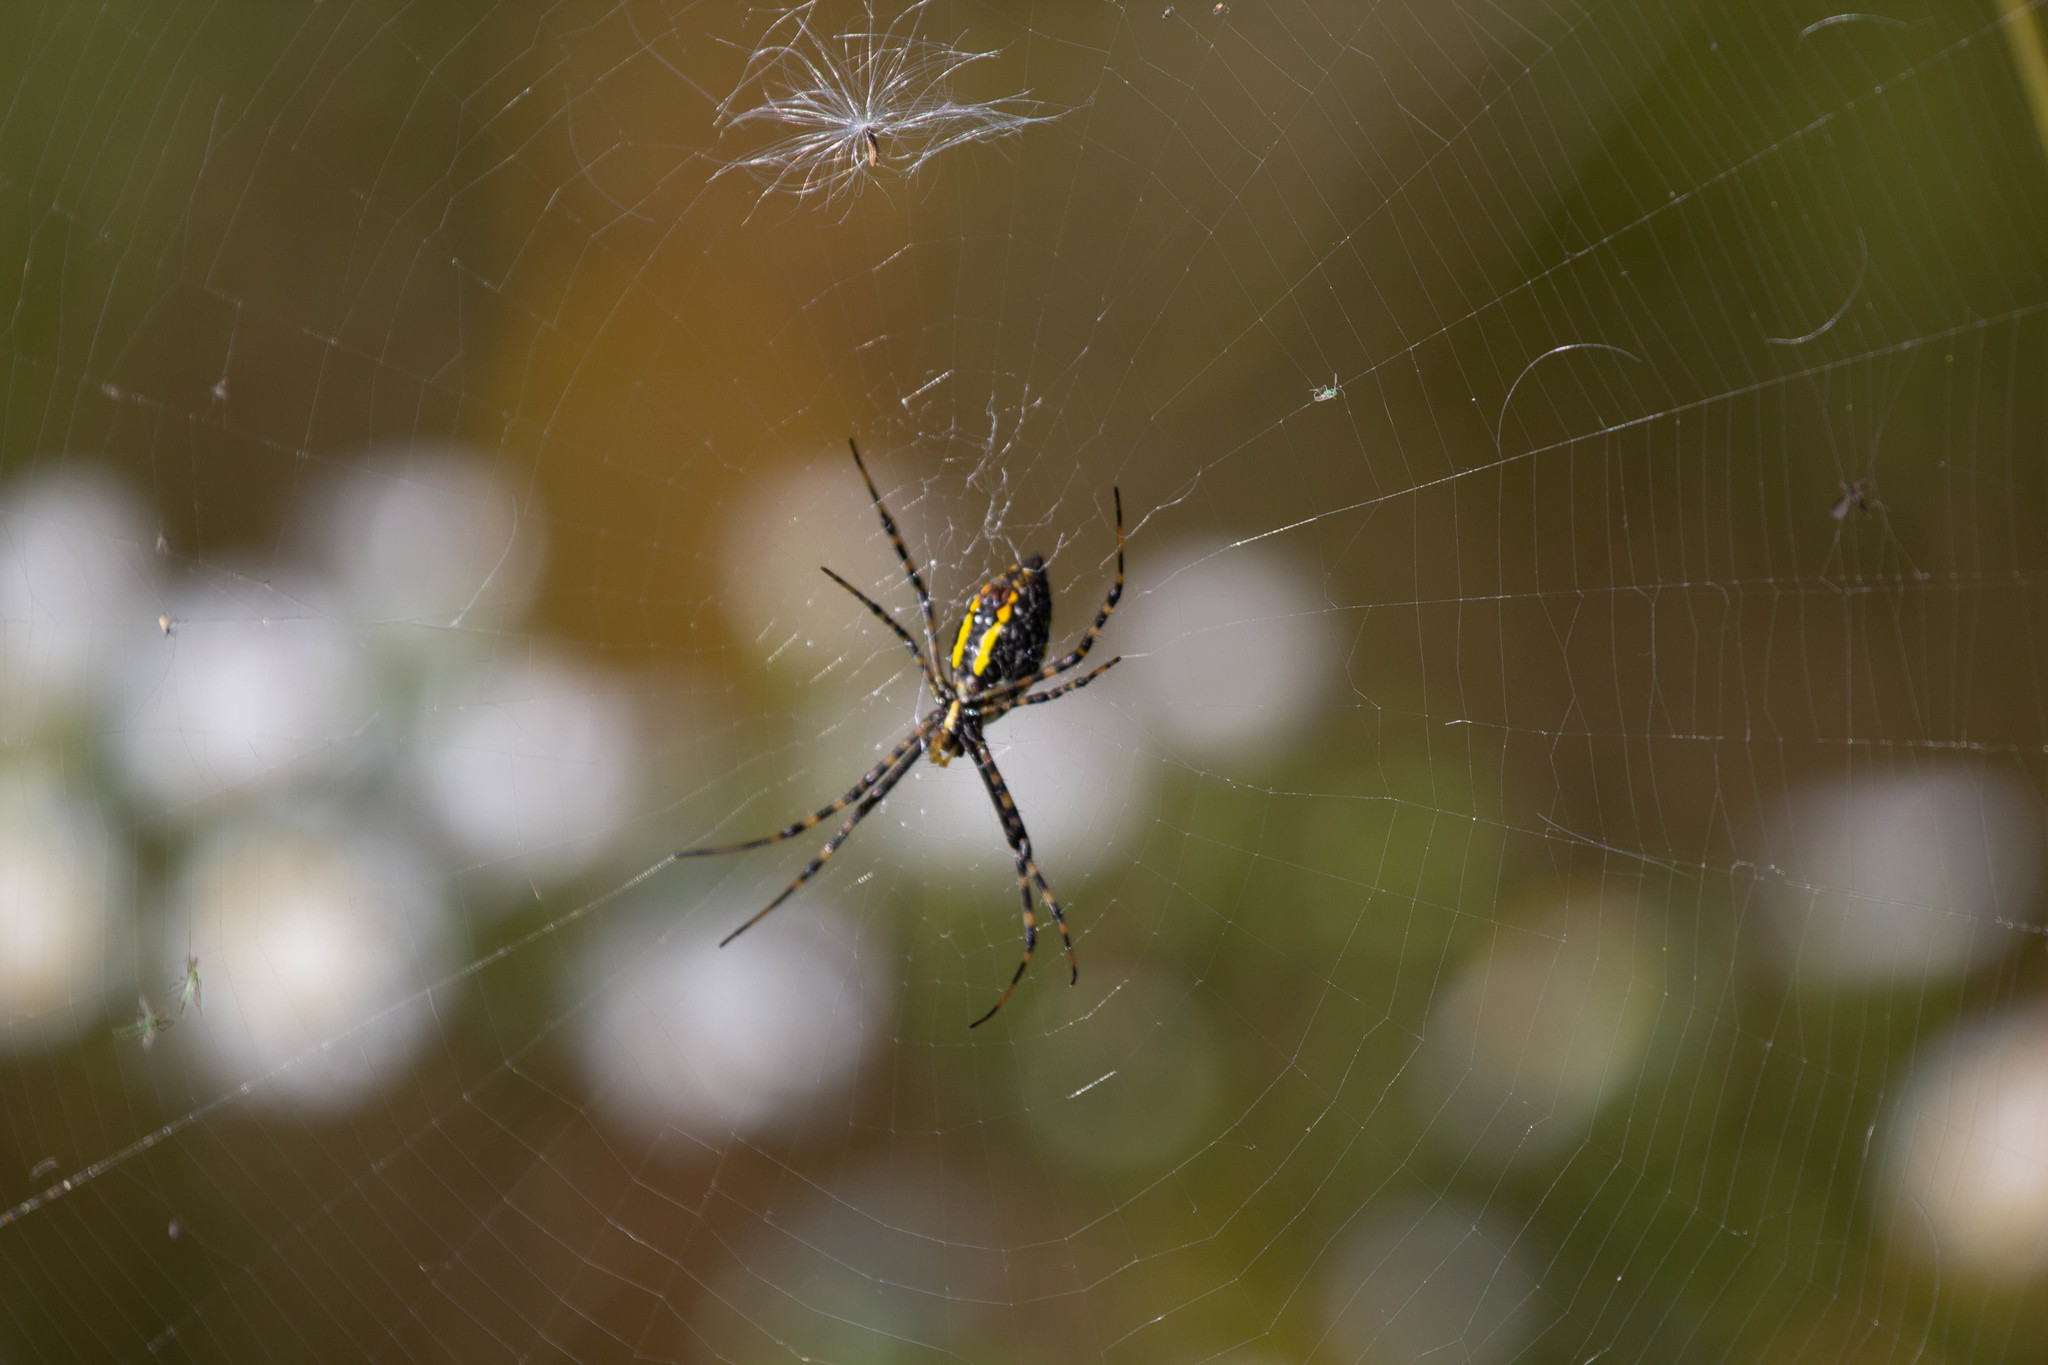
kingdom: Animalia
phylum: Arthropoda
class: Arachnida
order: Araneae
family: Araneidae
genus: Argiope
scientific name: Argiope trifasciata
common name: Banded garden spider
